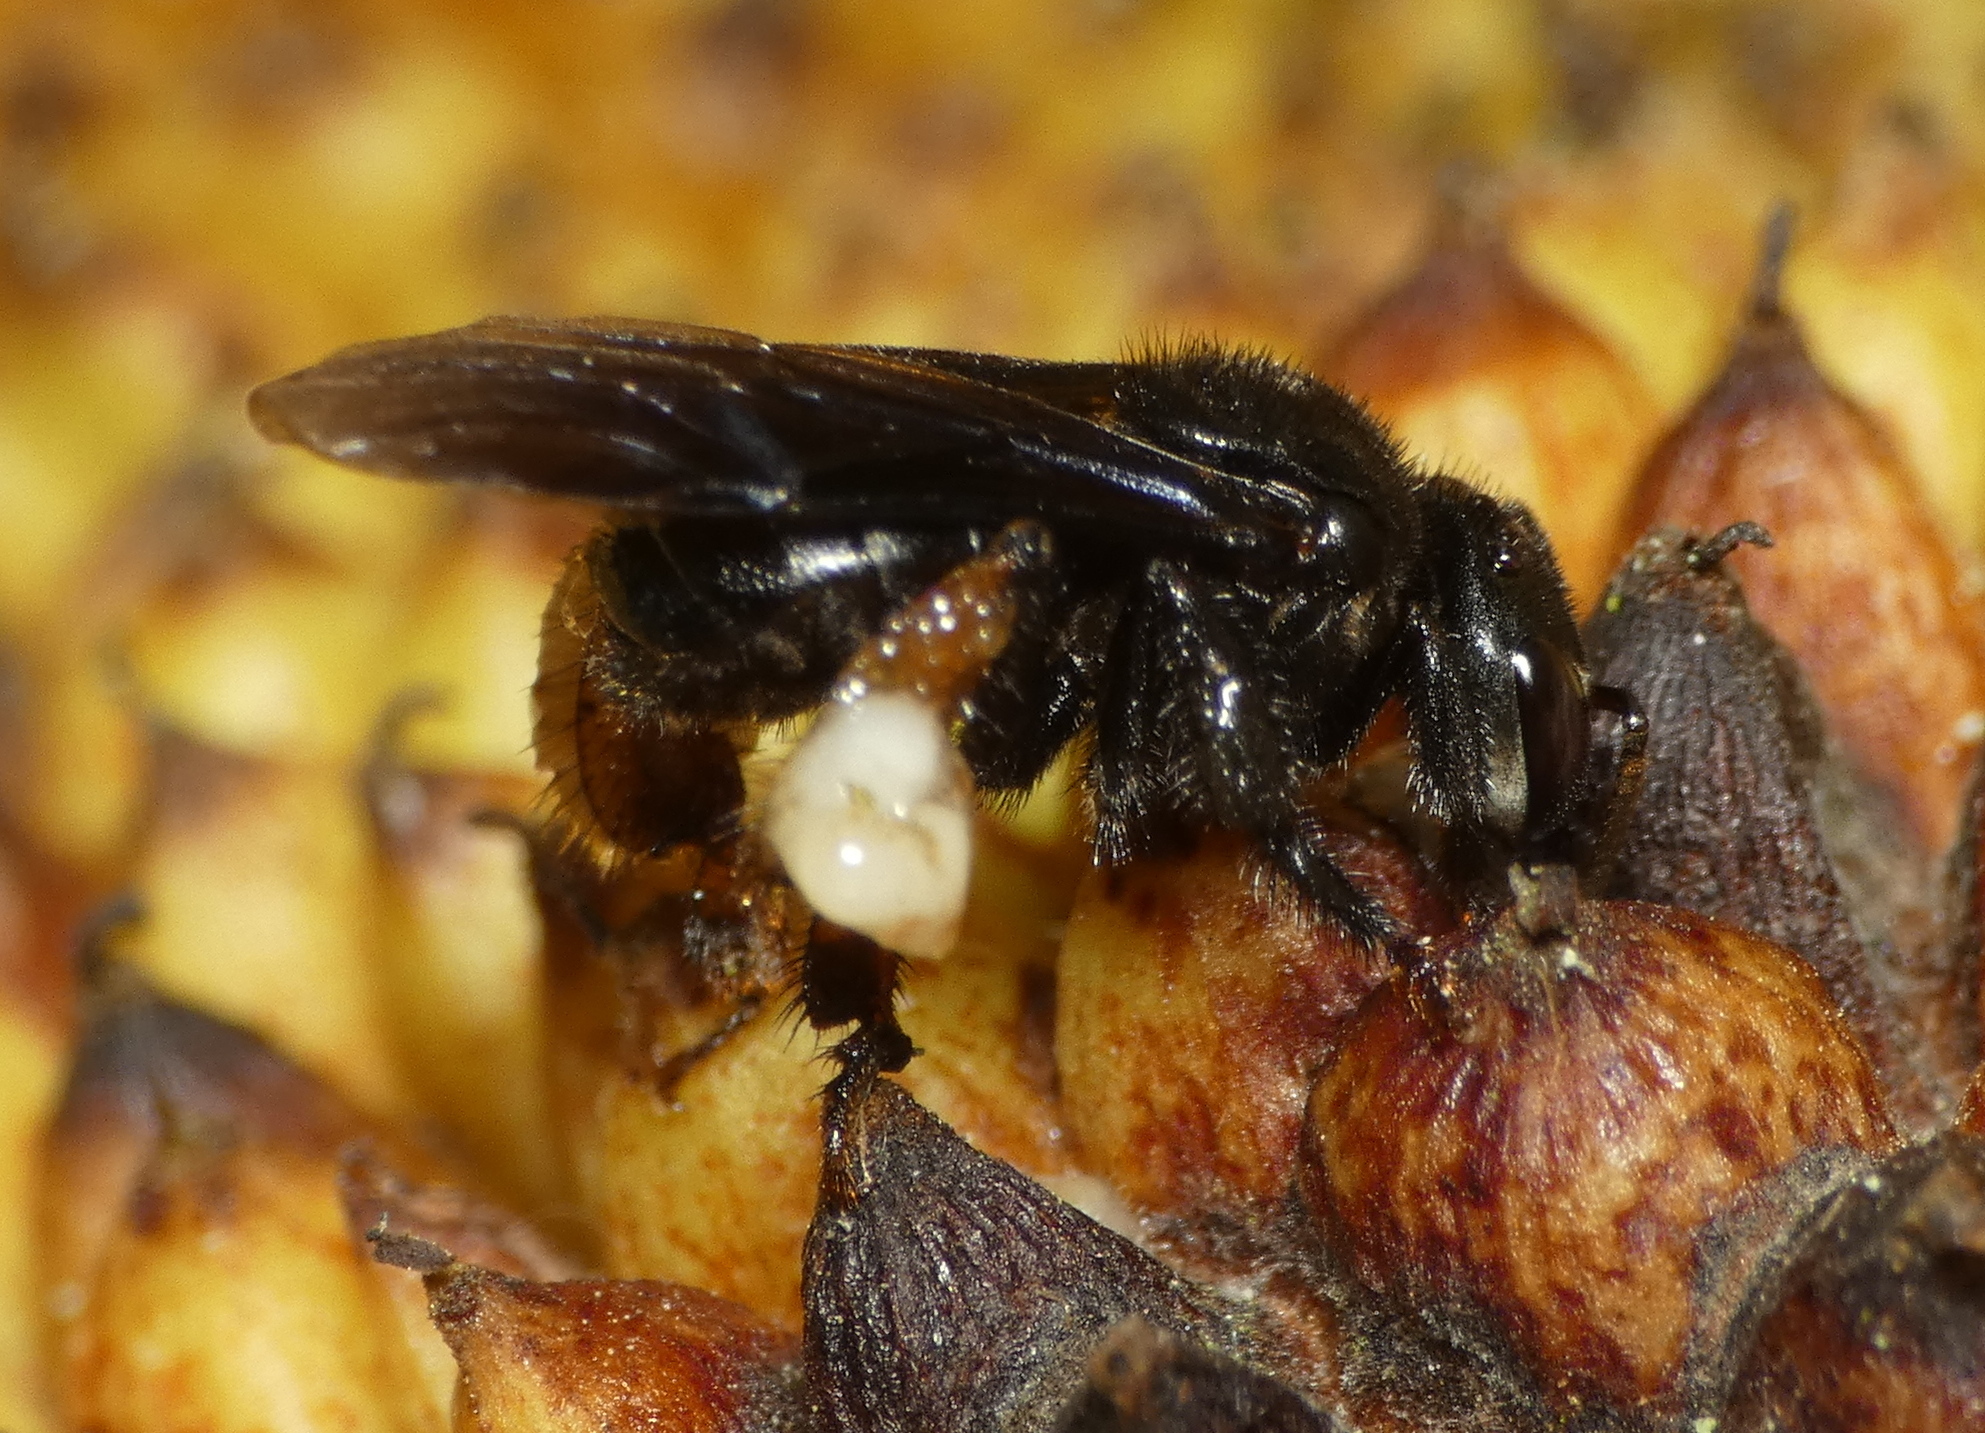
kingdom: Animalia
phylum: Arthropoda
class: Insecta
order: Hymenoptera
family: Apidae
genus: Trigona
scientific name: Trigona spinipes
